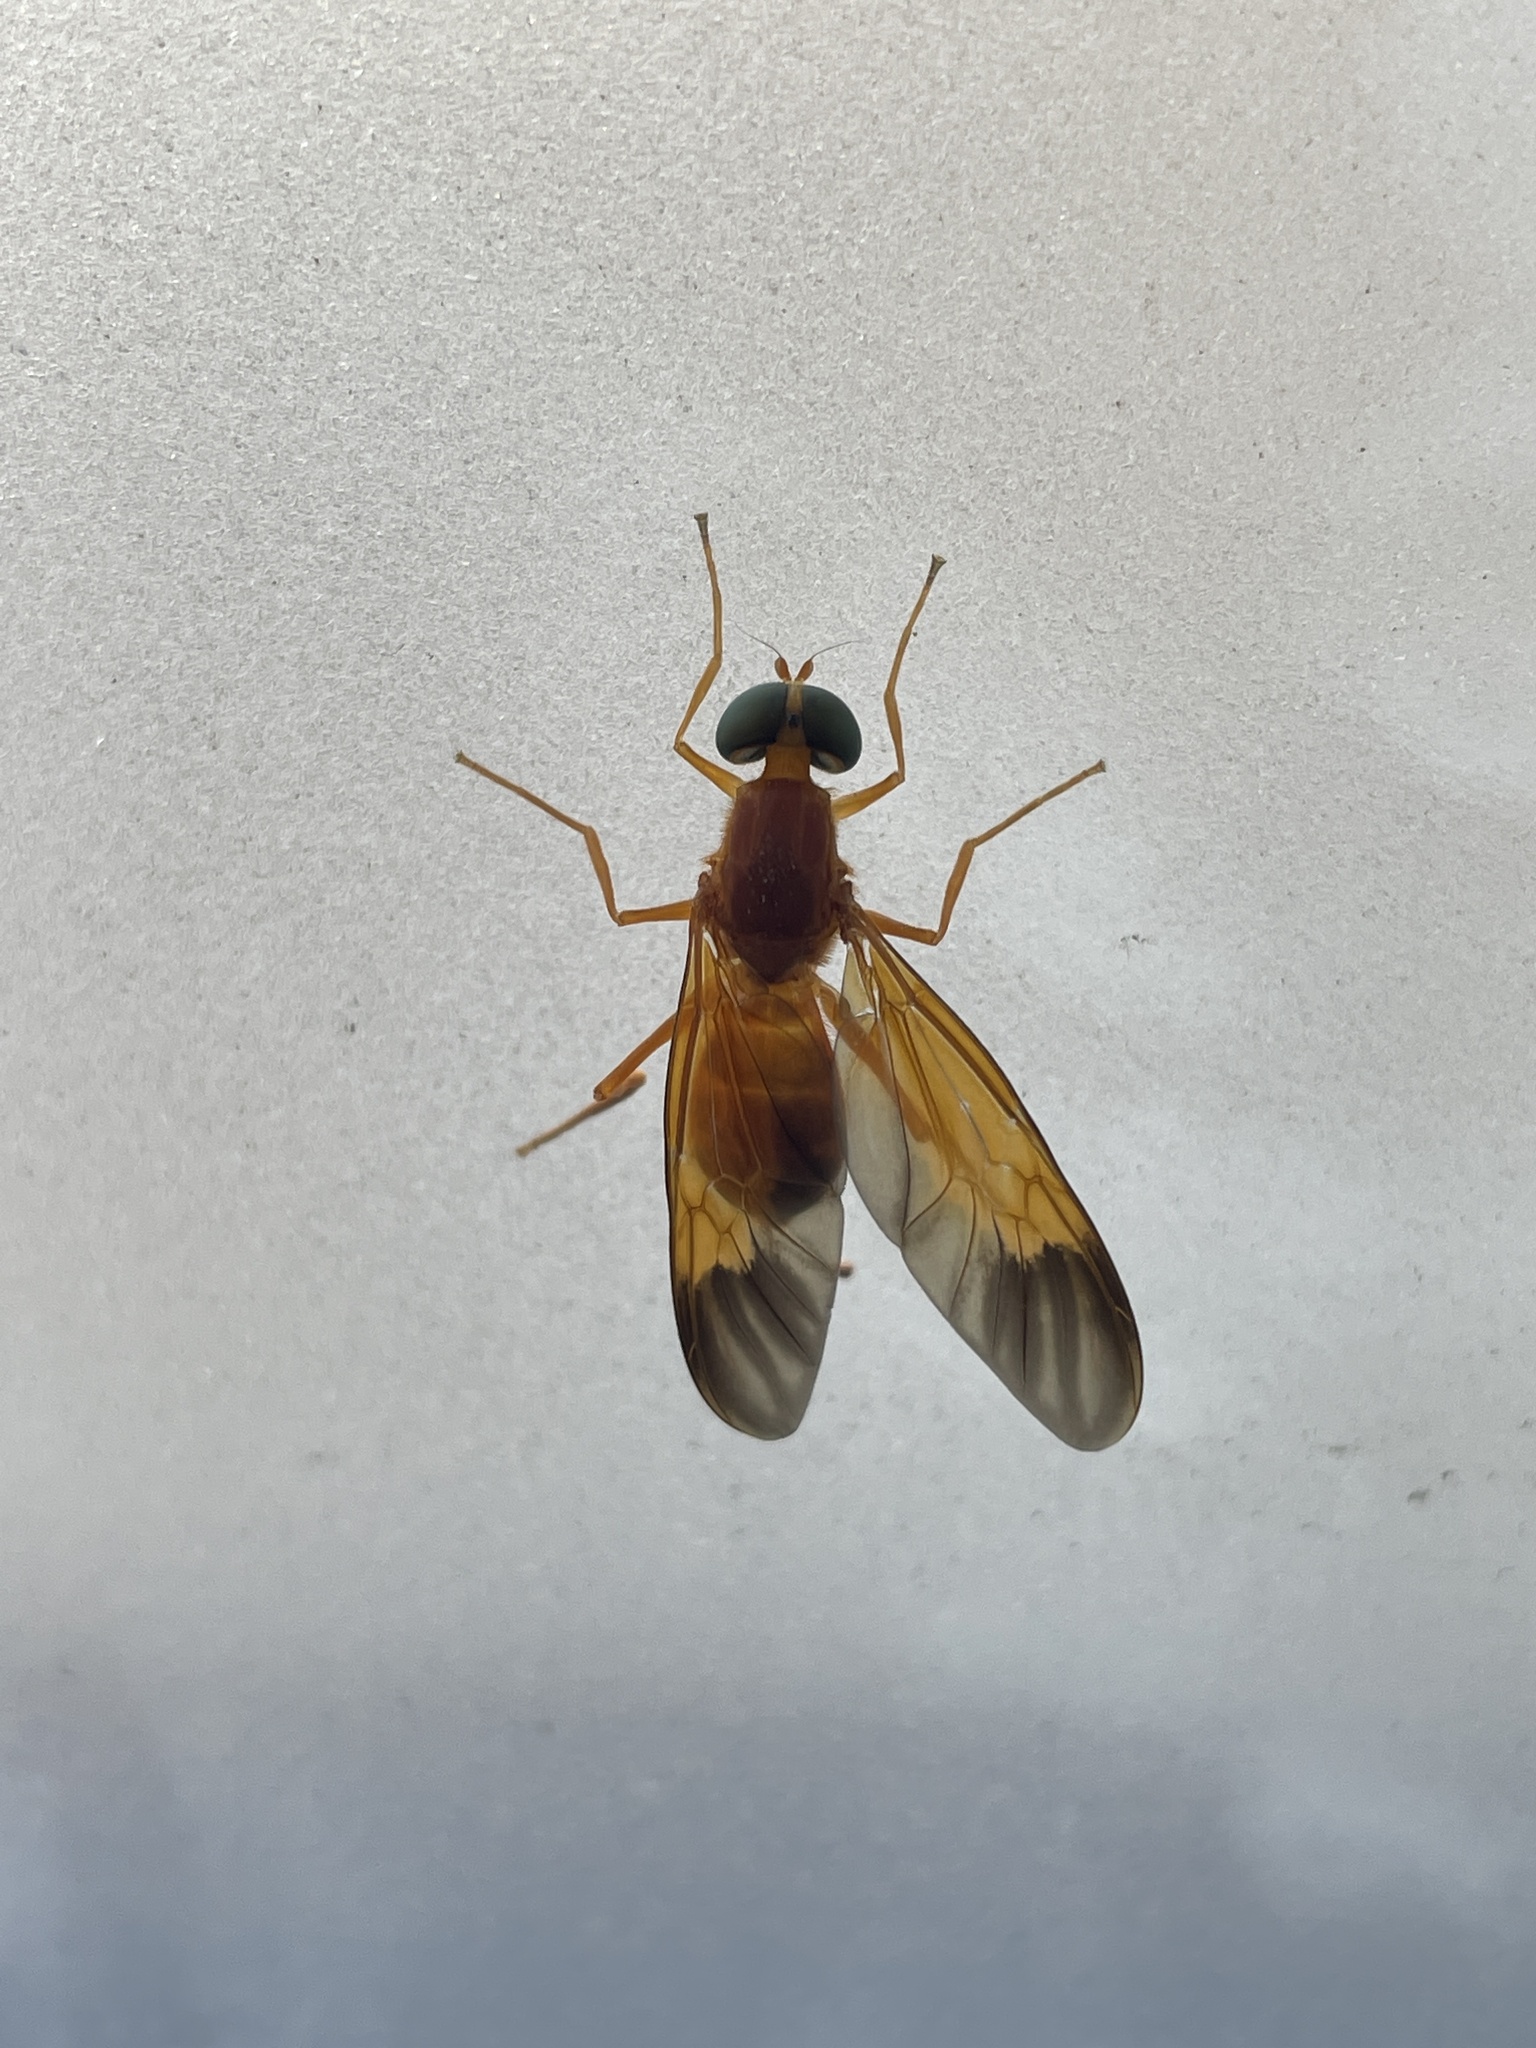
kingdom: Animalia
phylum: Arthropoda
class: Insecta
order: Diptera
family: Stratiomyidae
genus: Ptecticus
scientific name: Ptecticus aurifer
